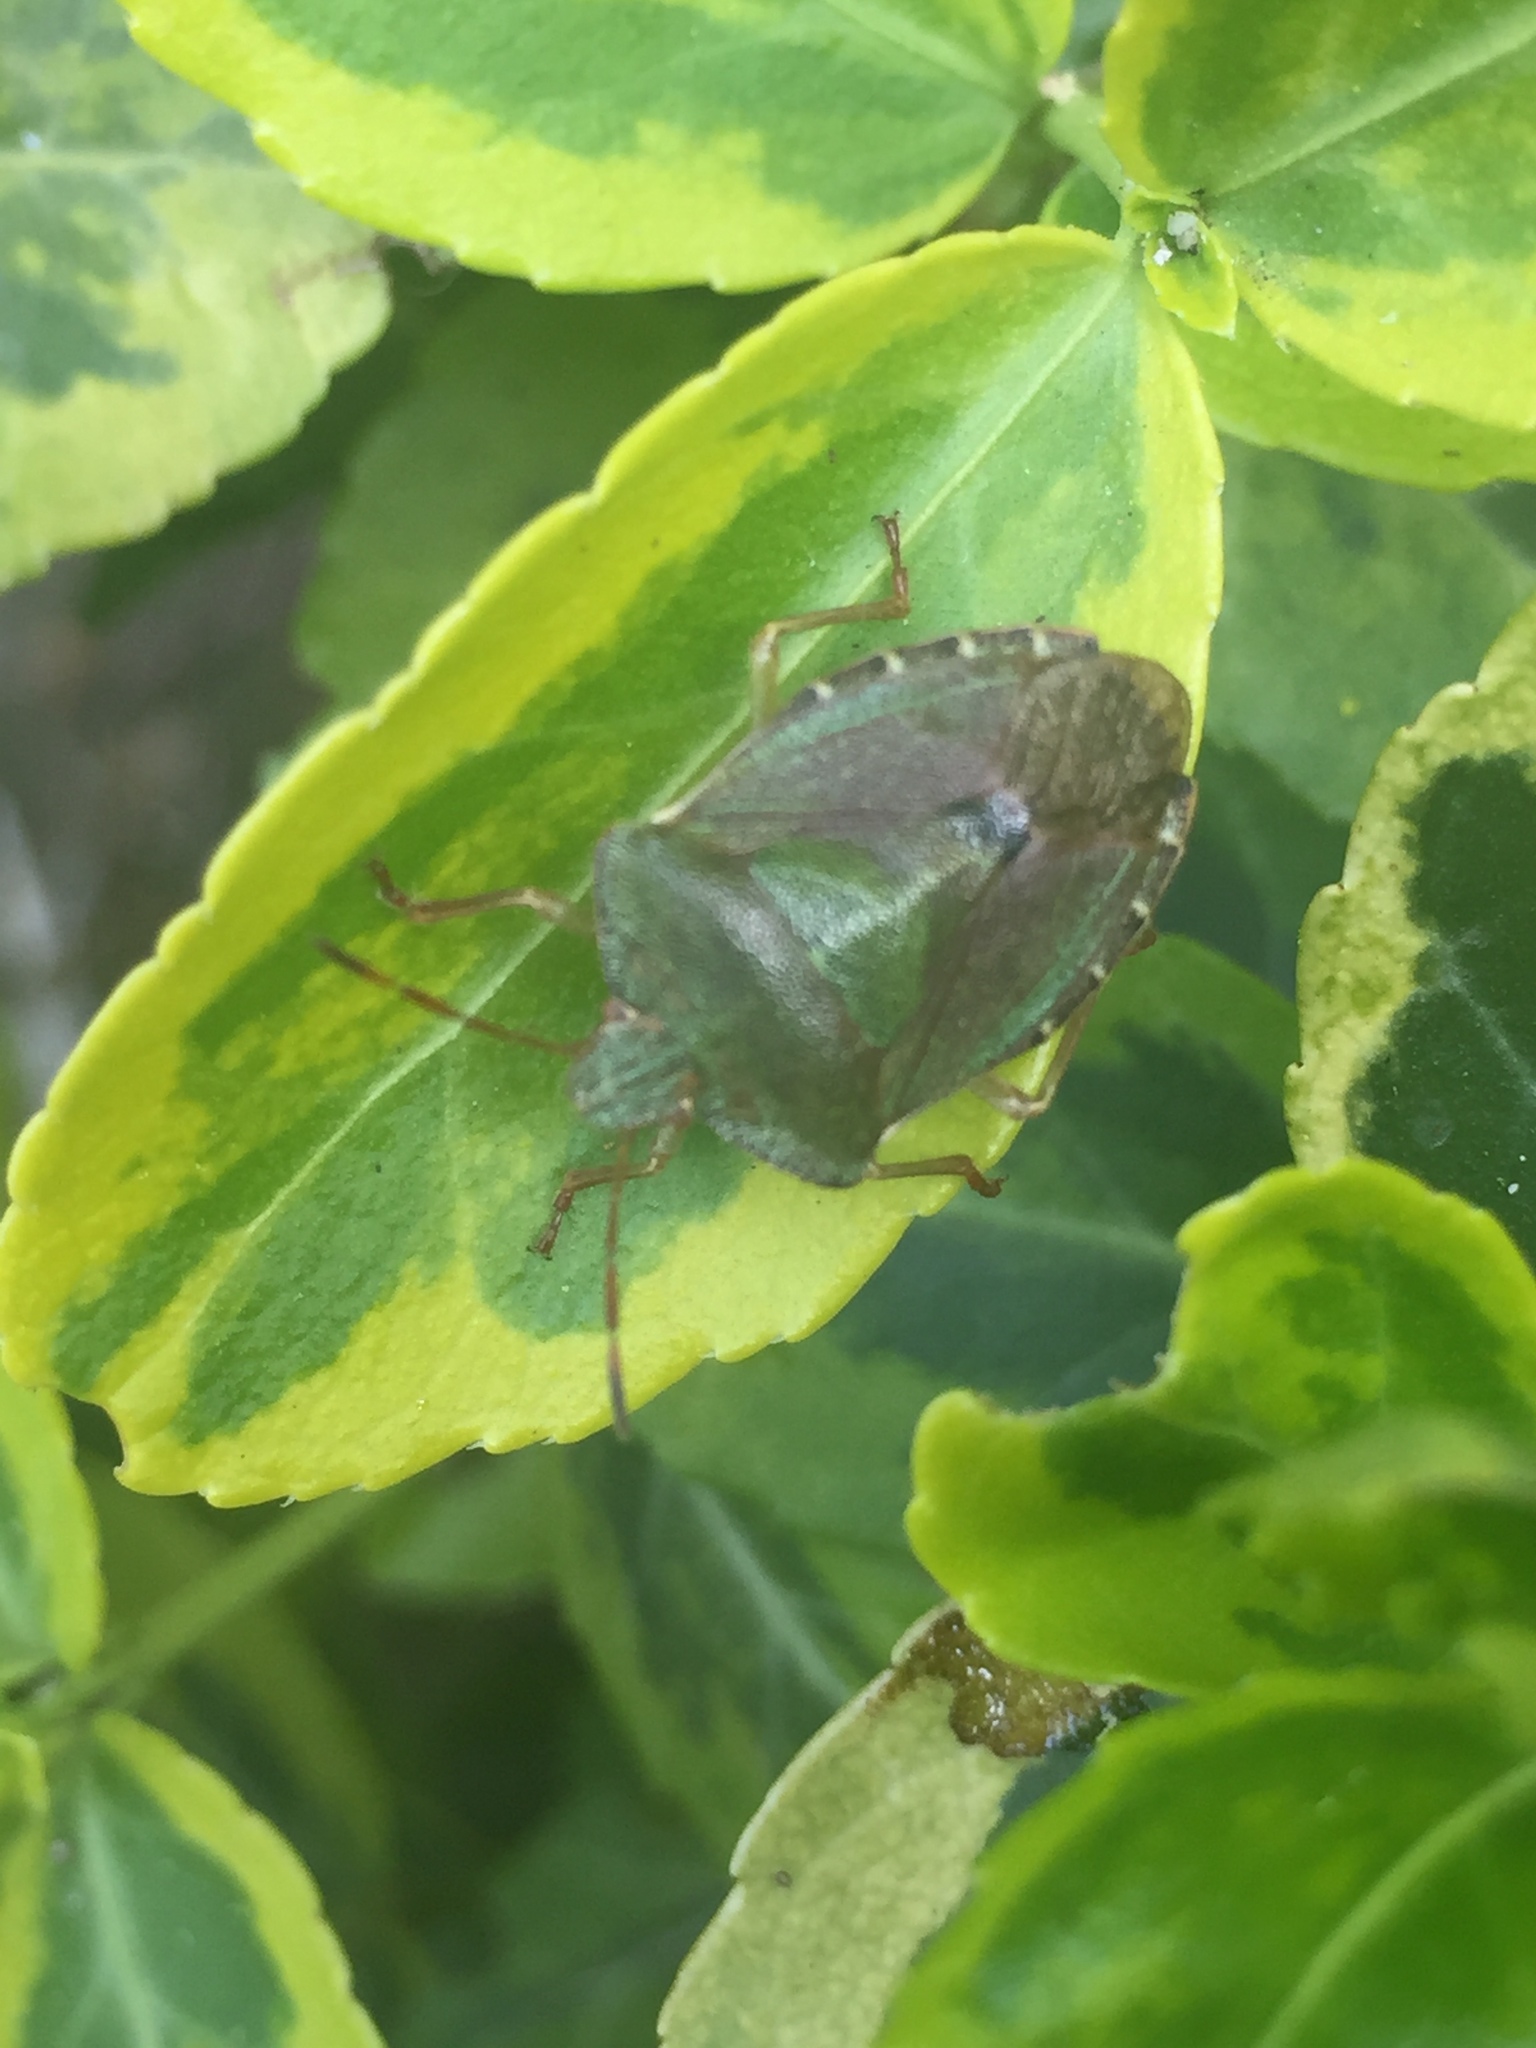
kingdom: Animalia
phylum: Arthropoda
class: Insecta
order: Hemiptera
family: Pentatomidae
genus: Palomena
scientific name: Palomena prasina
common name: Green shieldbug
